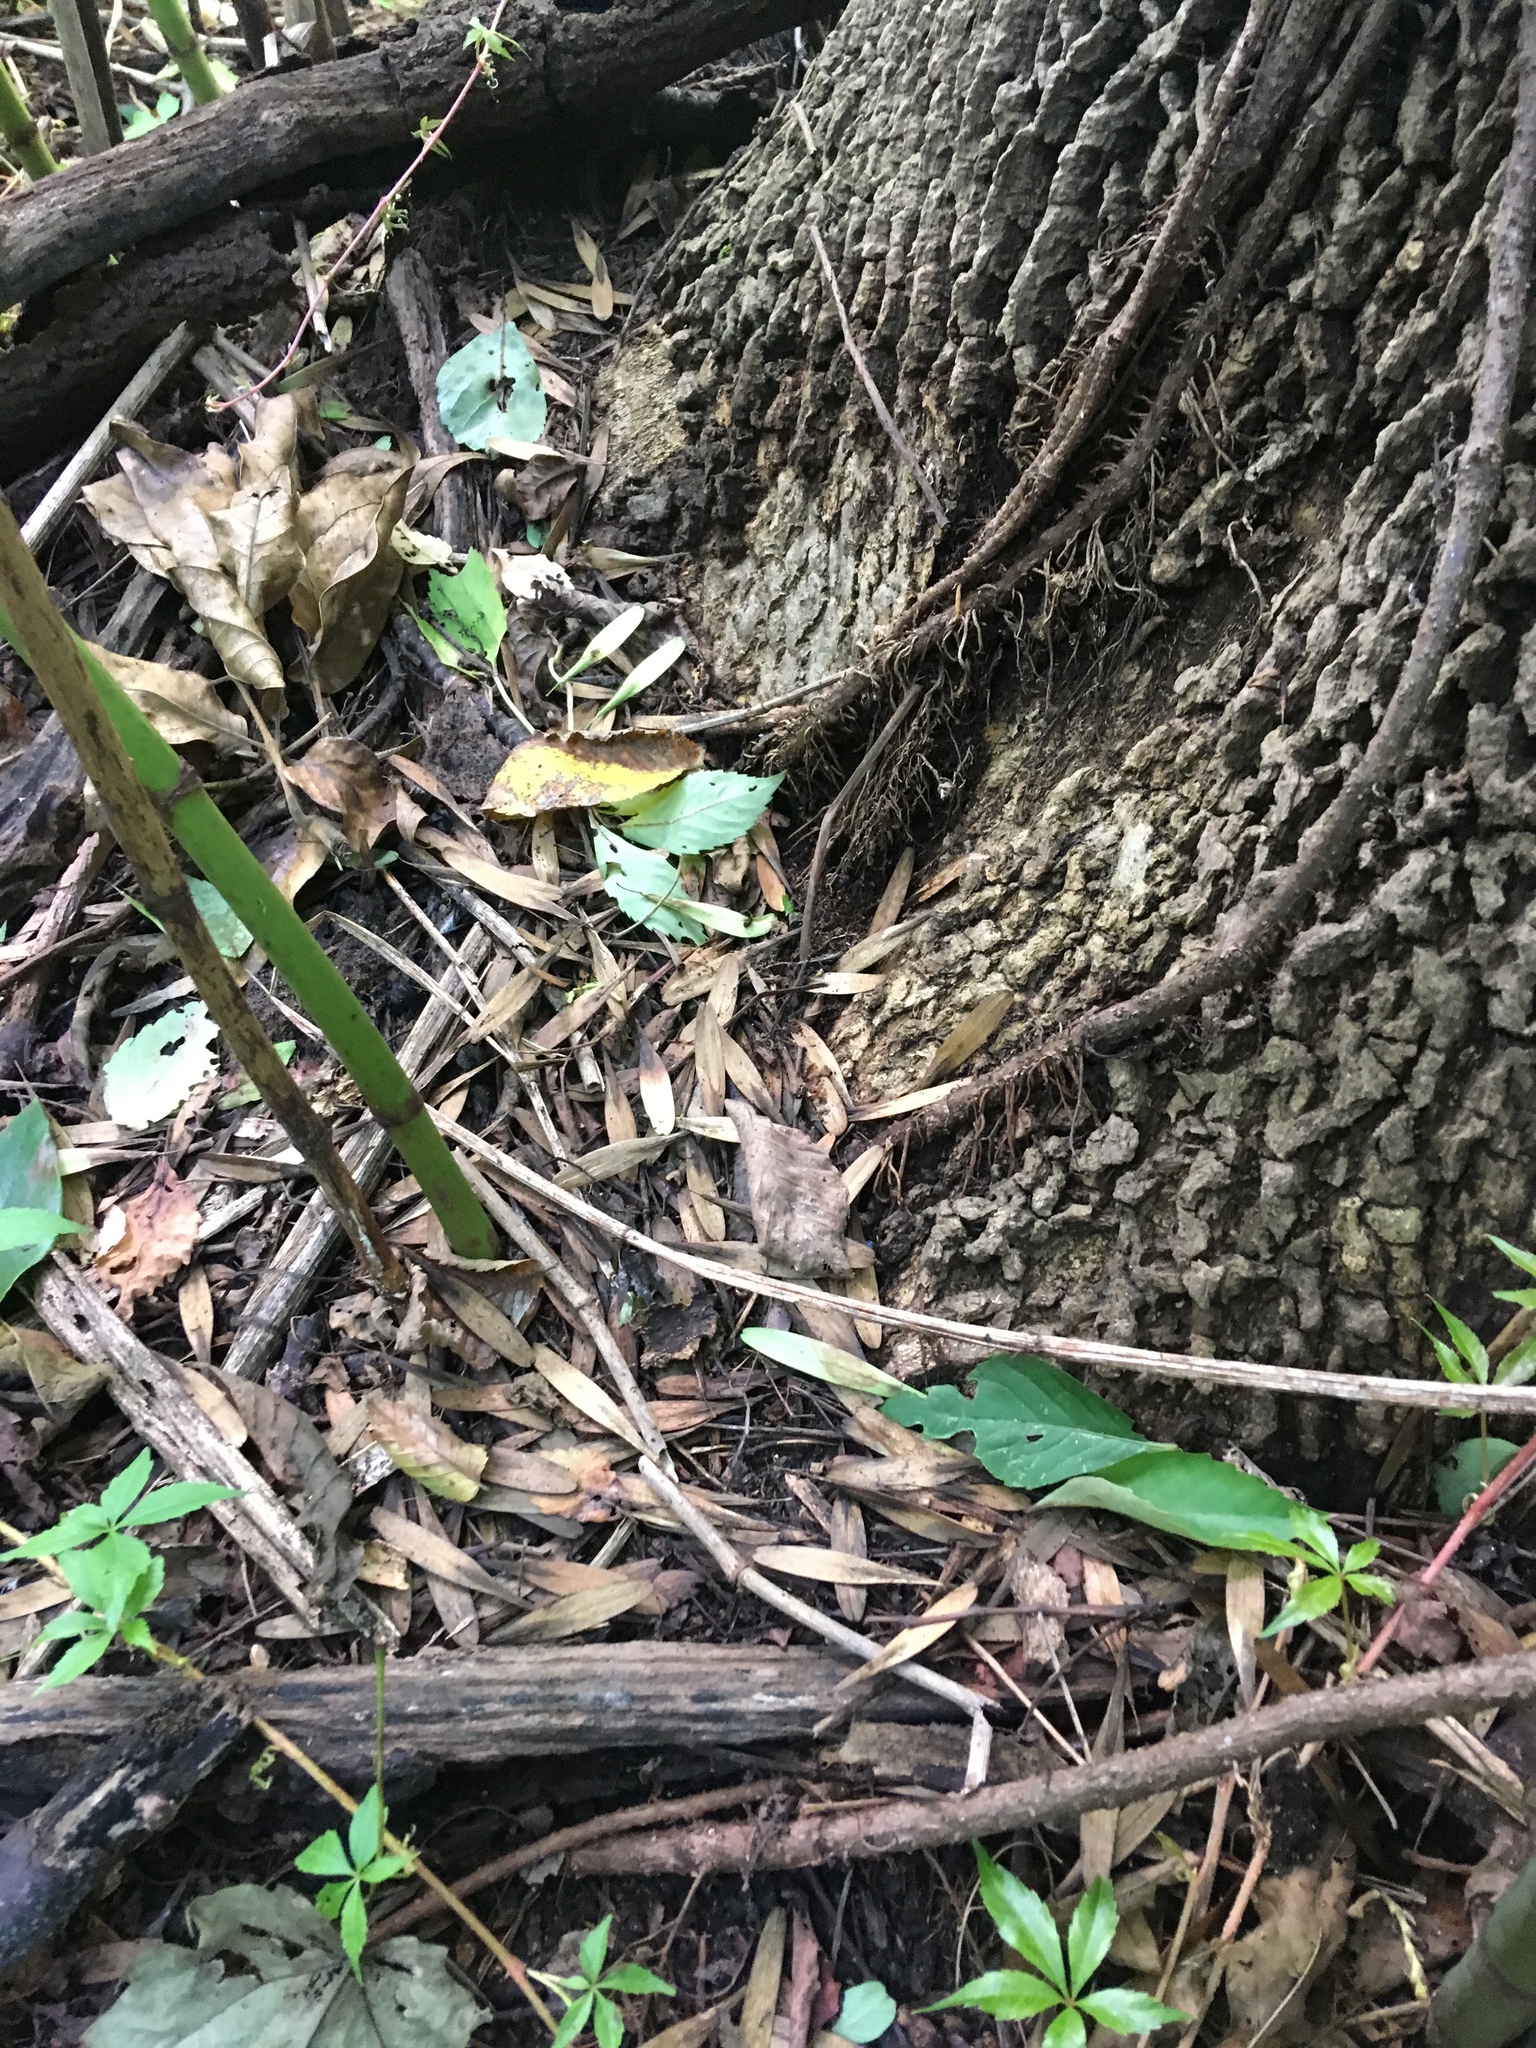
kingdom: Plantae
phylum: Tracheophyta
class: Magnoliopsida
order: Lamiales
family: Oleaceae
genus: Fraxinus
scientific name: Fraxinus profunda
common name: Pumpkin ash
